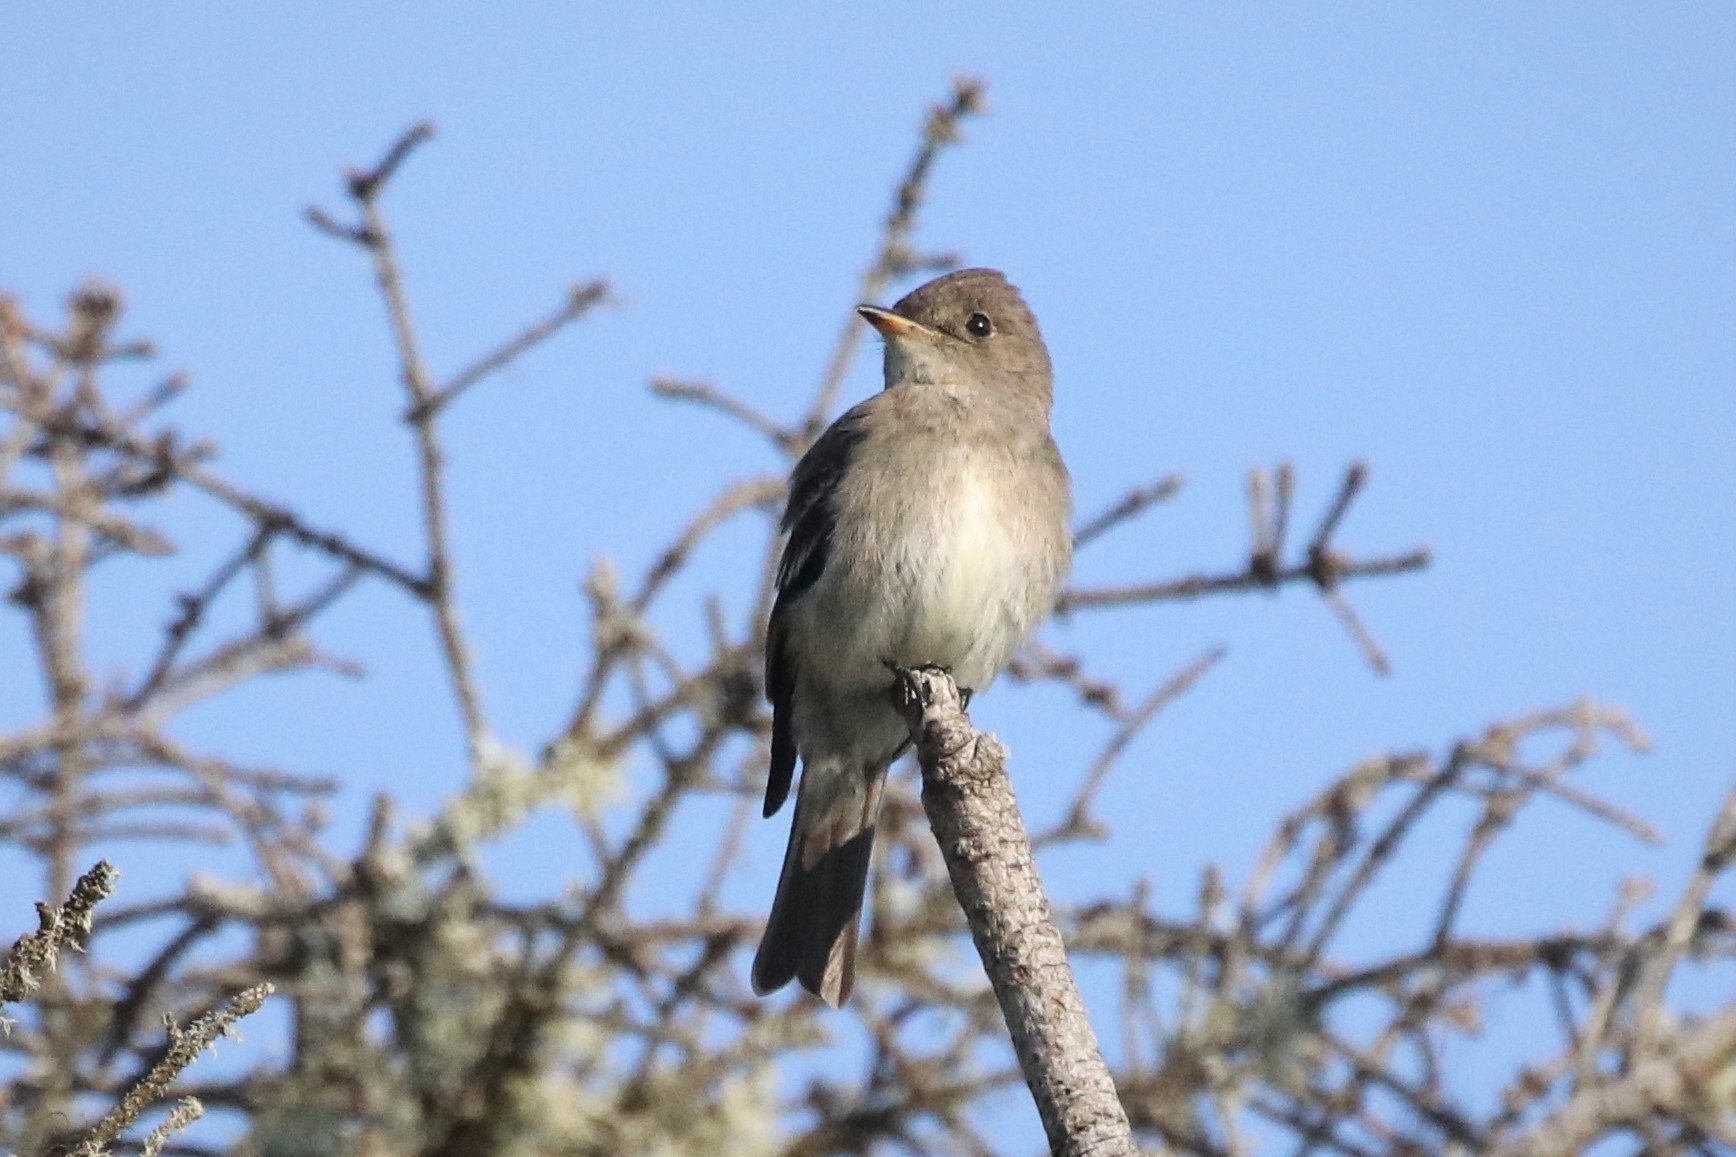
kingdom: Animalia
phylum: Chordata
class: Aves
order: Passeriformes
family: Tyrannidae
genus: Contopus
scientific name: Contopus virens
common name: Eastern wood-pewee
